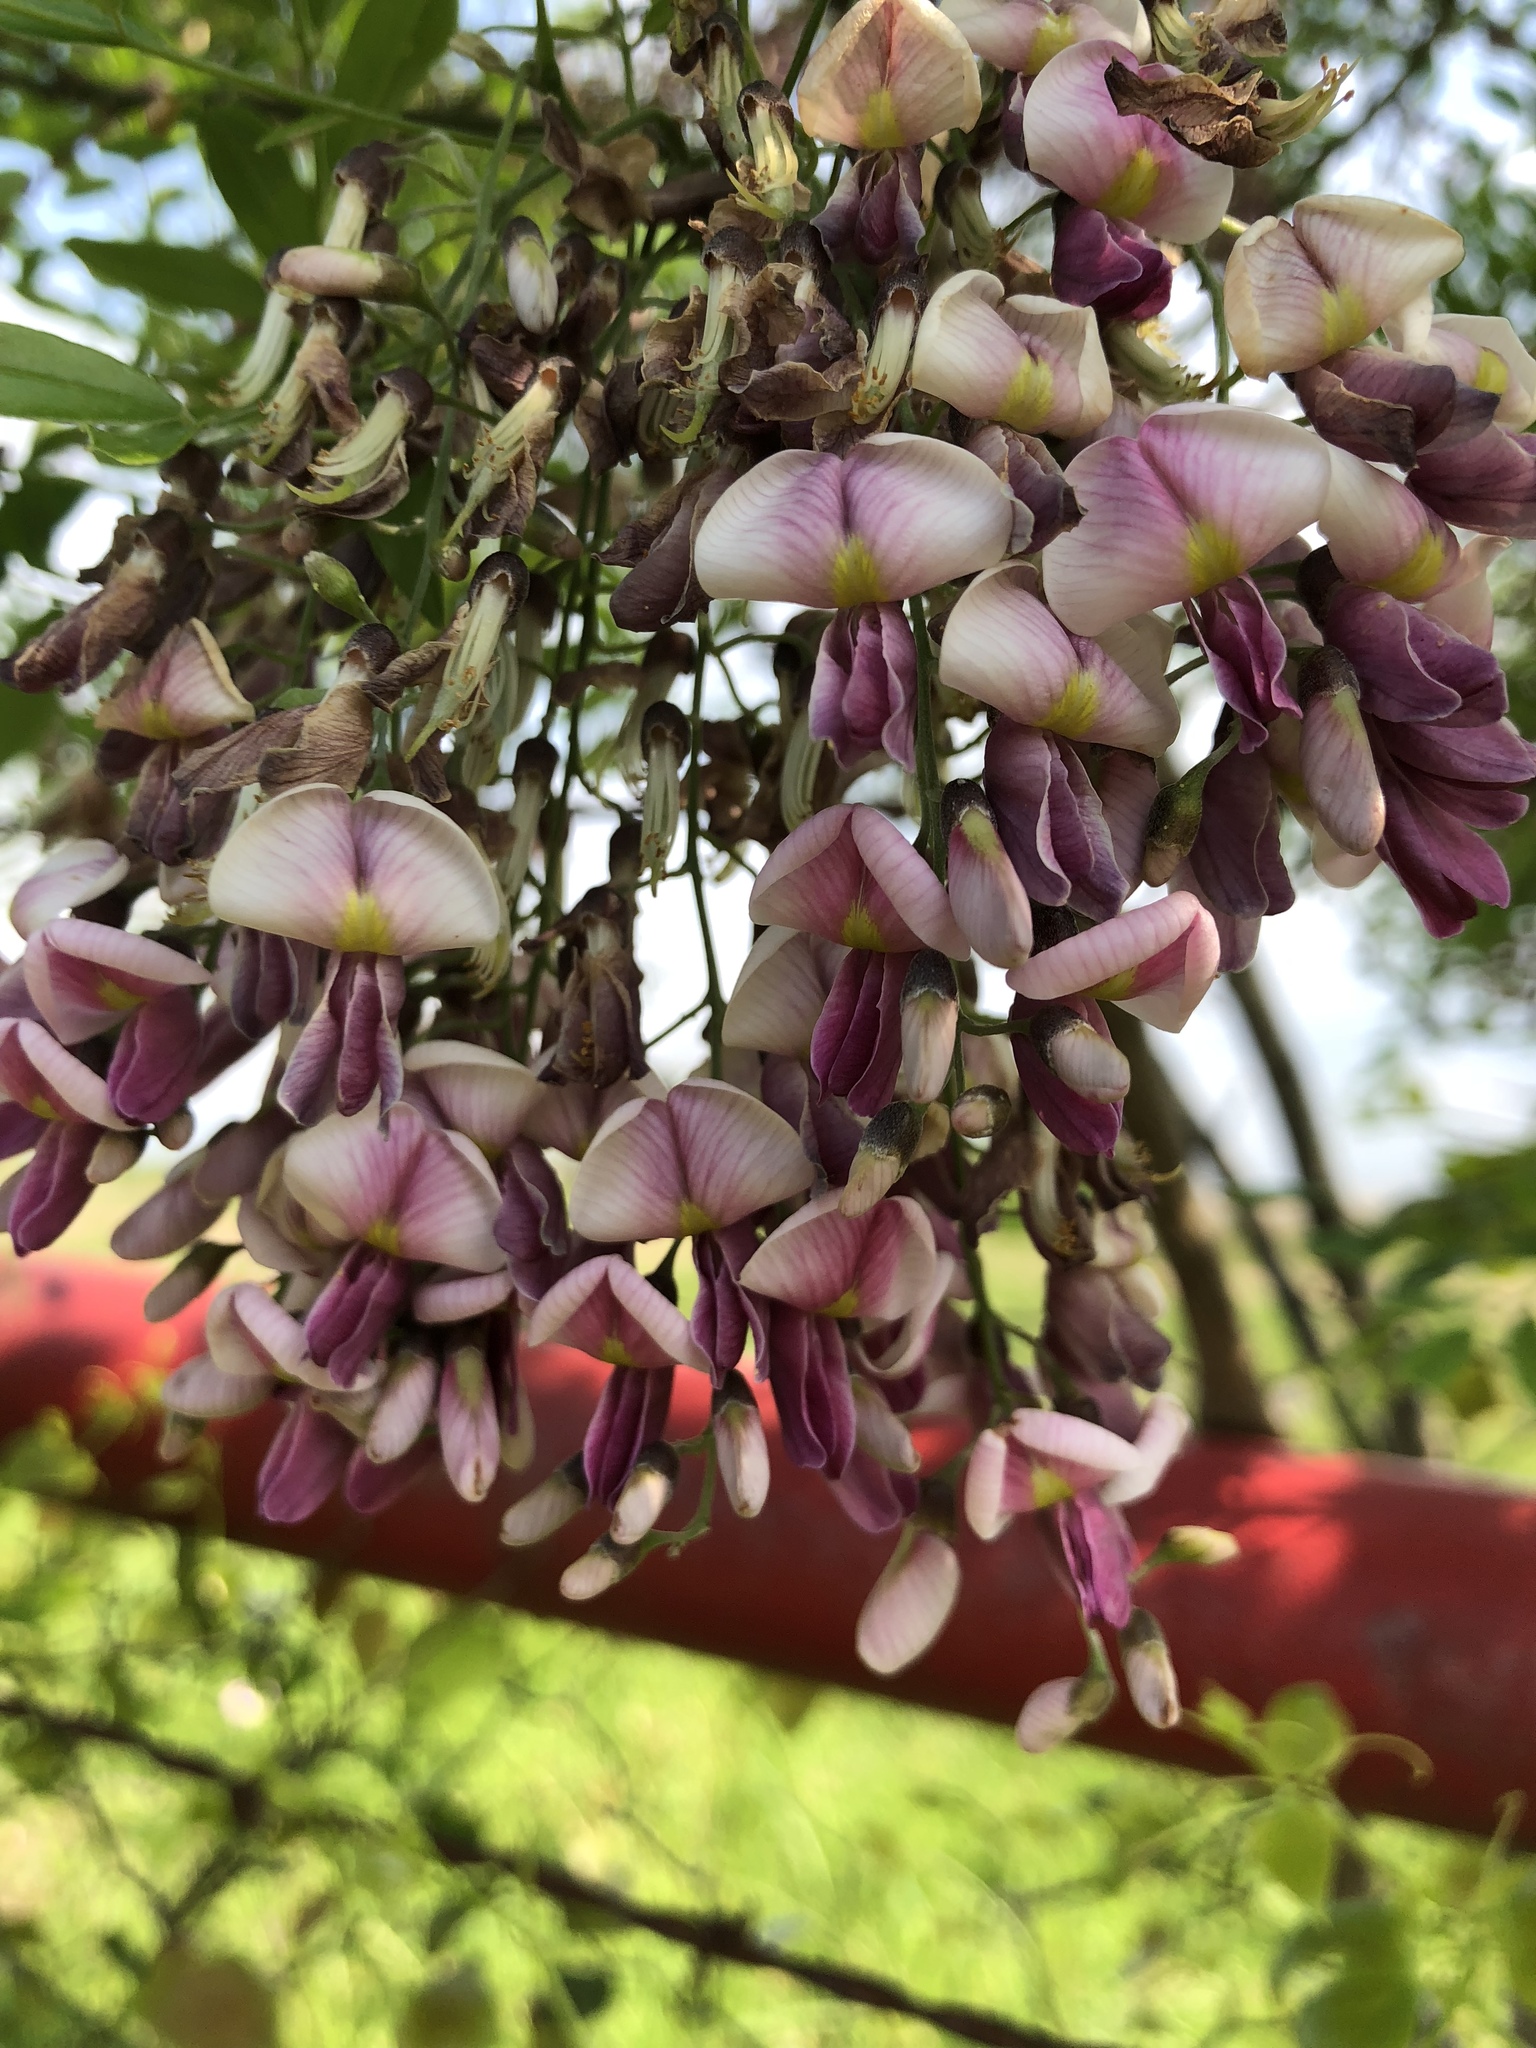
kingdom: Plantae
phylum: Tracheophyta
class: Magnoliopsida
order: Fabales
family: Fabaceae
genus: Styphnolobium
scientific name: Styphnolobium affine
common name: Texas sophora
